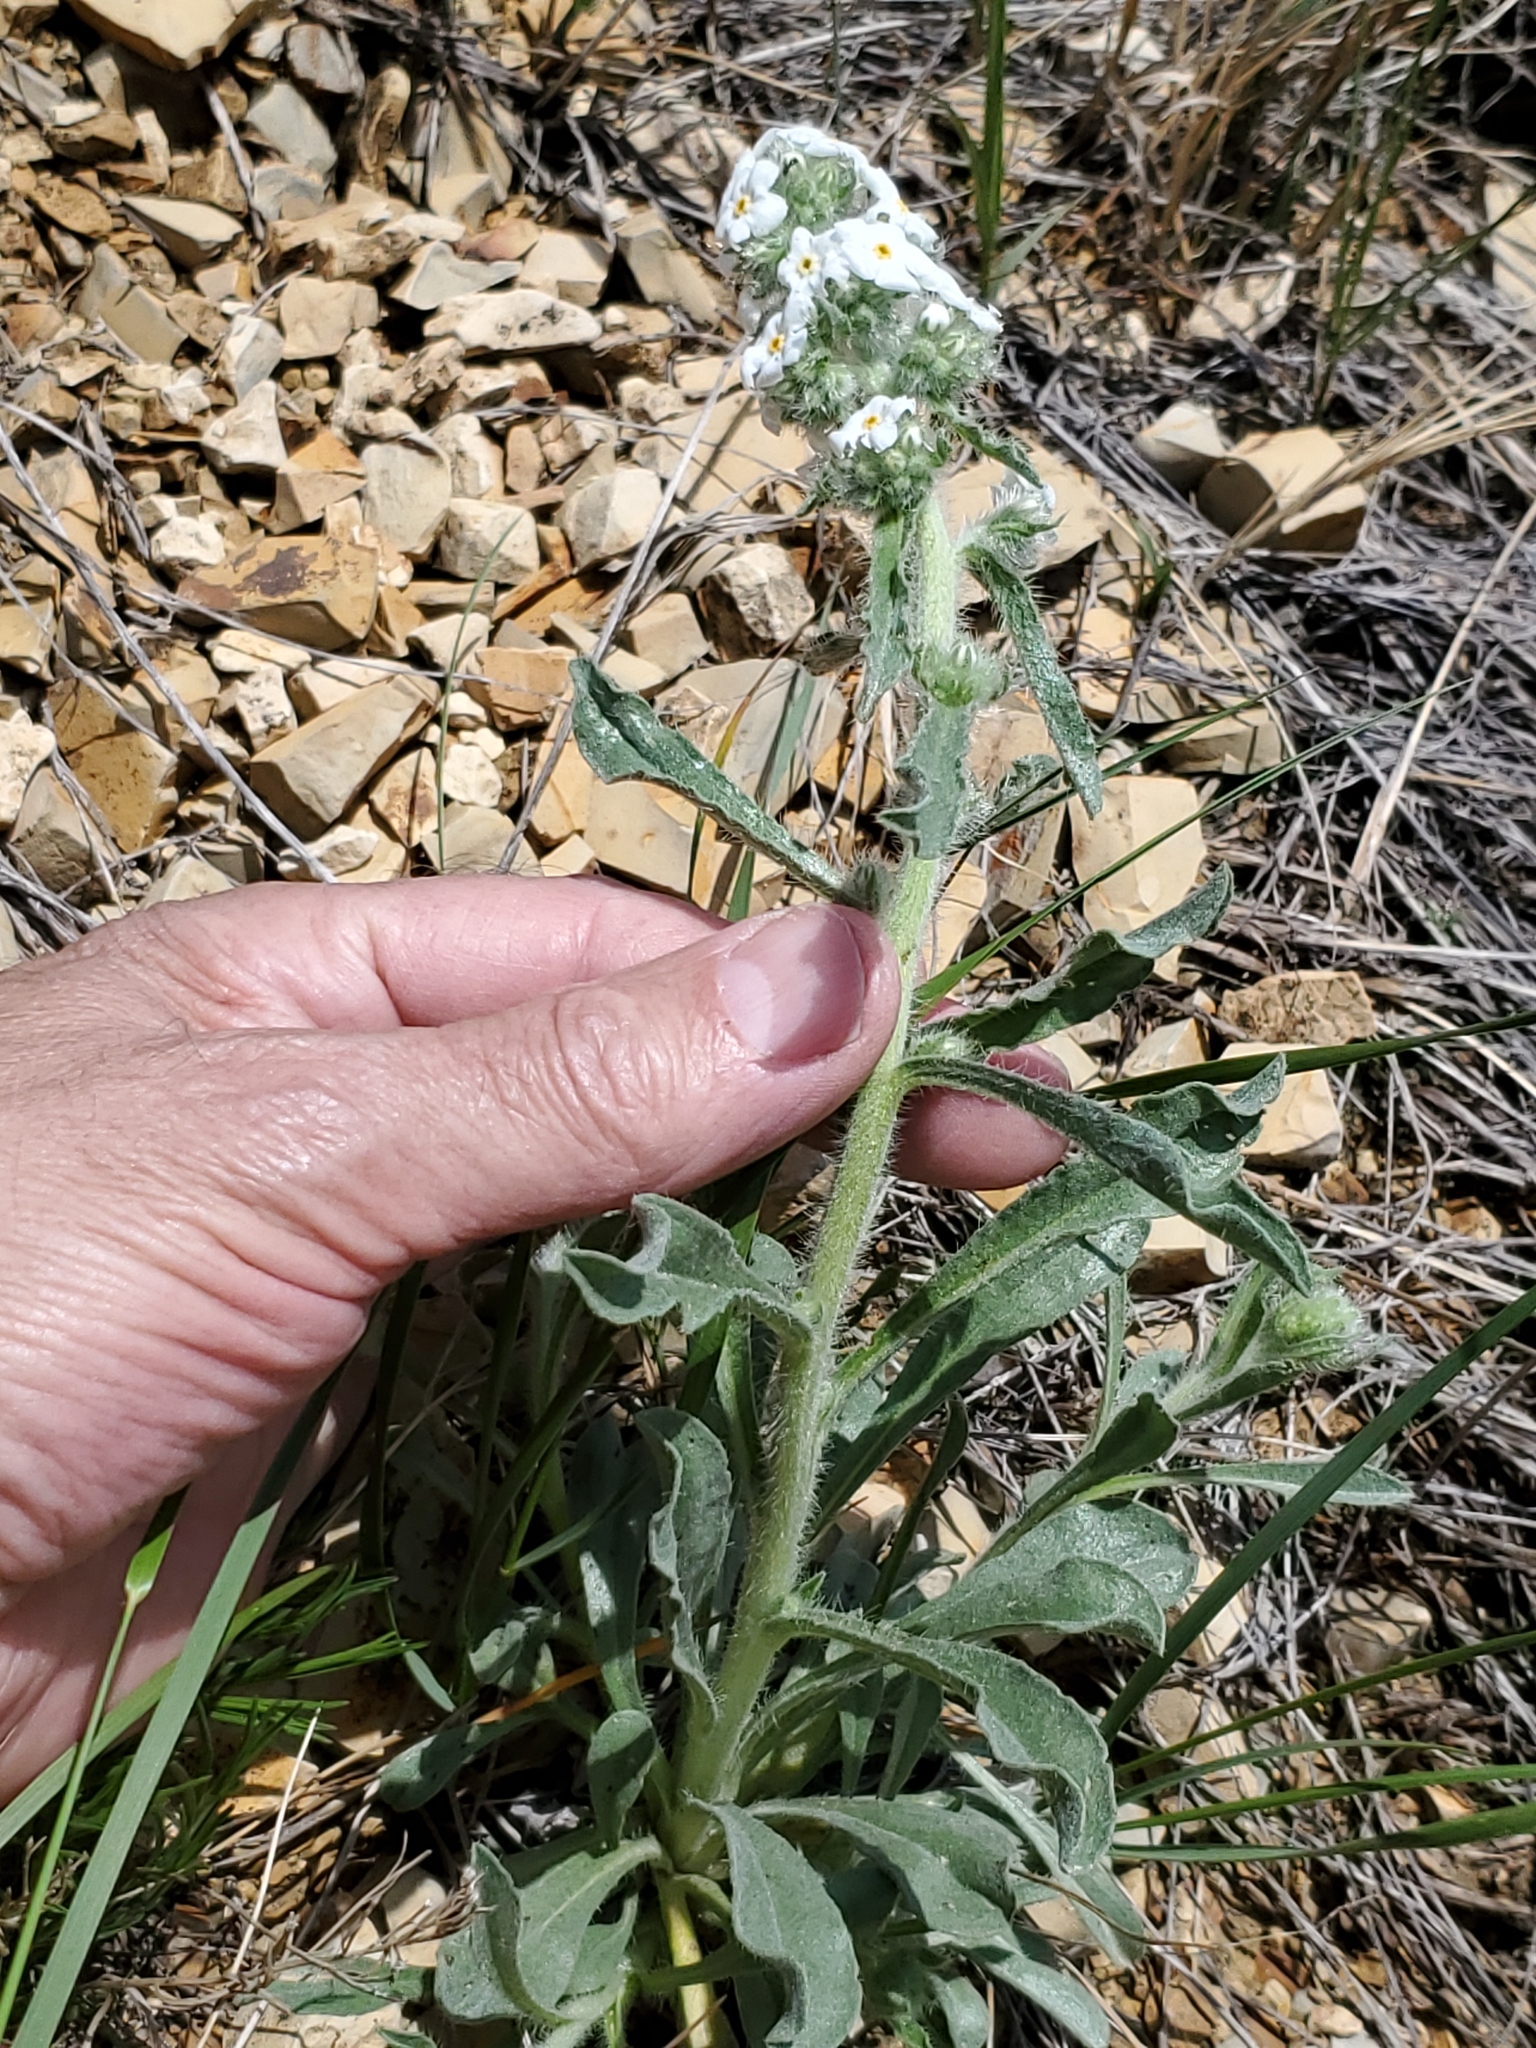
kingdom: Plantae
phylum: Tracheophyta
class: Magnoliopsida
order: Boraginales
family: Boraginaceae
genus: Oreocarya
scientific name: Oreocarya glomerata
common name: Macoun's cryptantha
